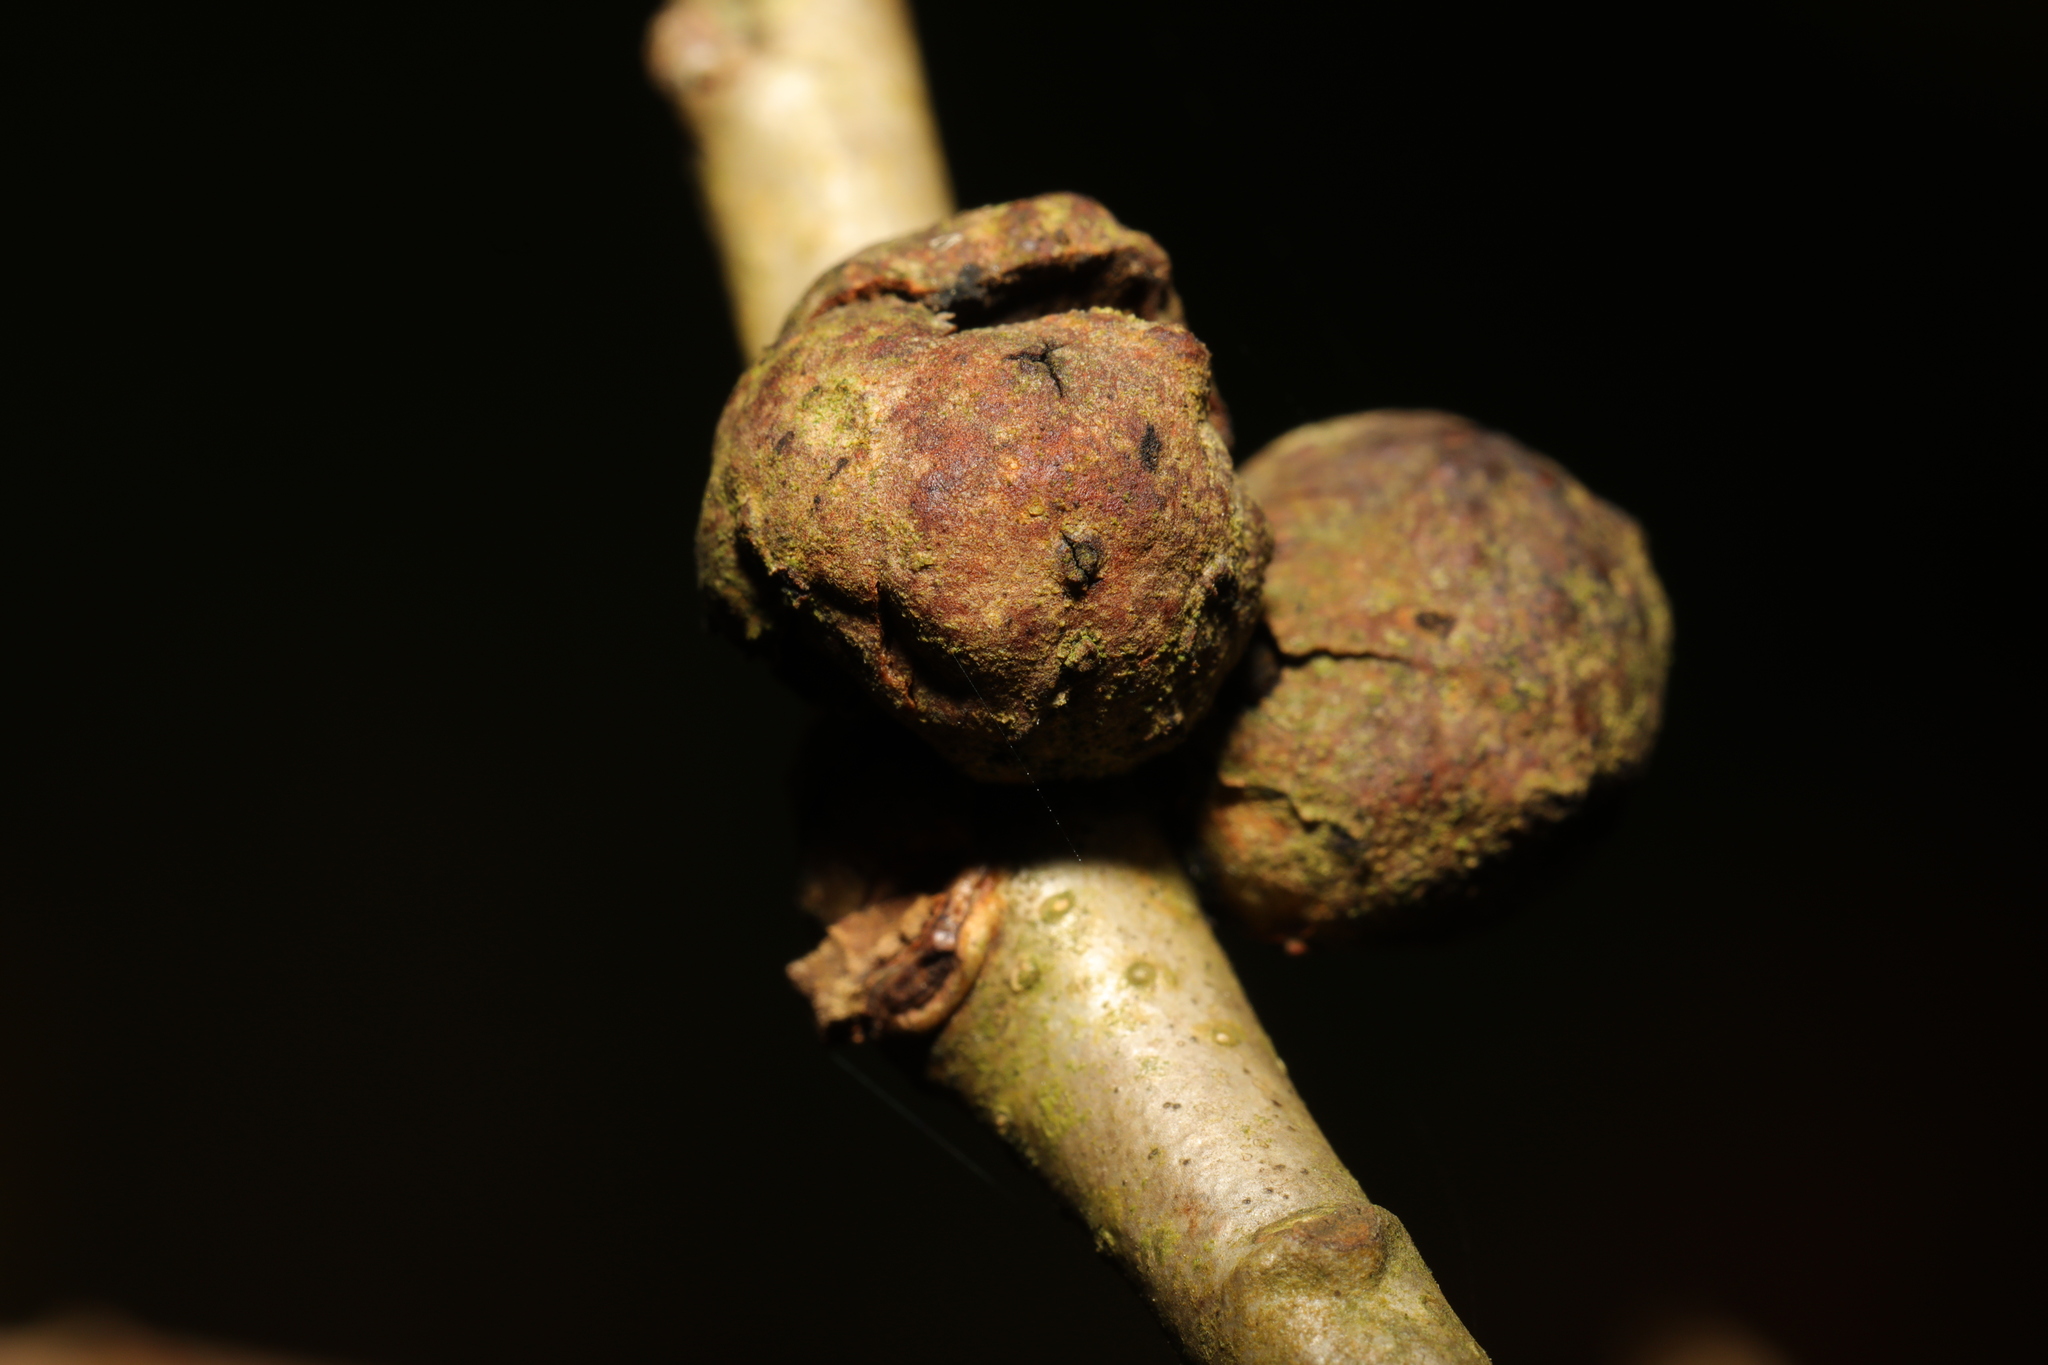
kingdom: Animalia
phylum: Arthropoda
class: Insecta
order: Hymenoptera
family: Cynipidae
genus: Andricus
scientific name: Andricus lignicolus
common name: Cola-nut gall
